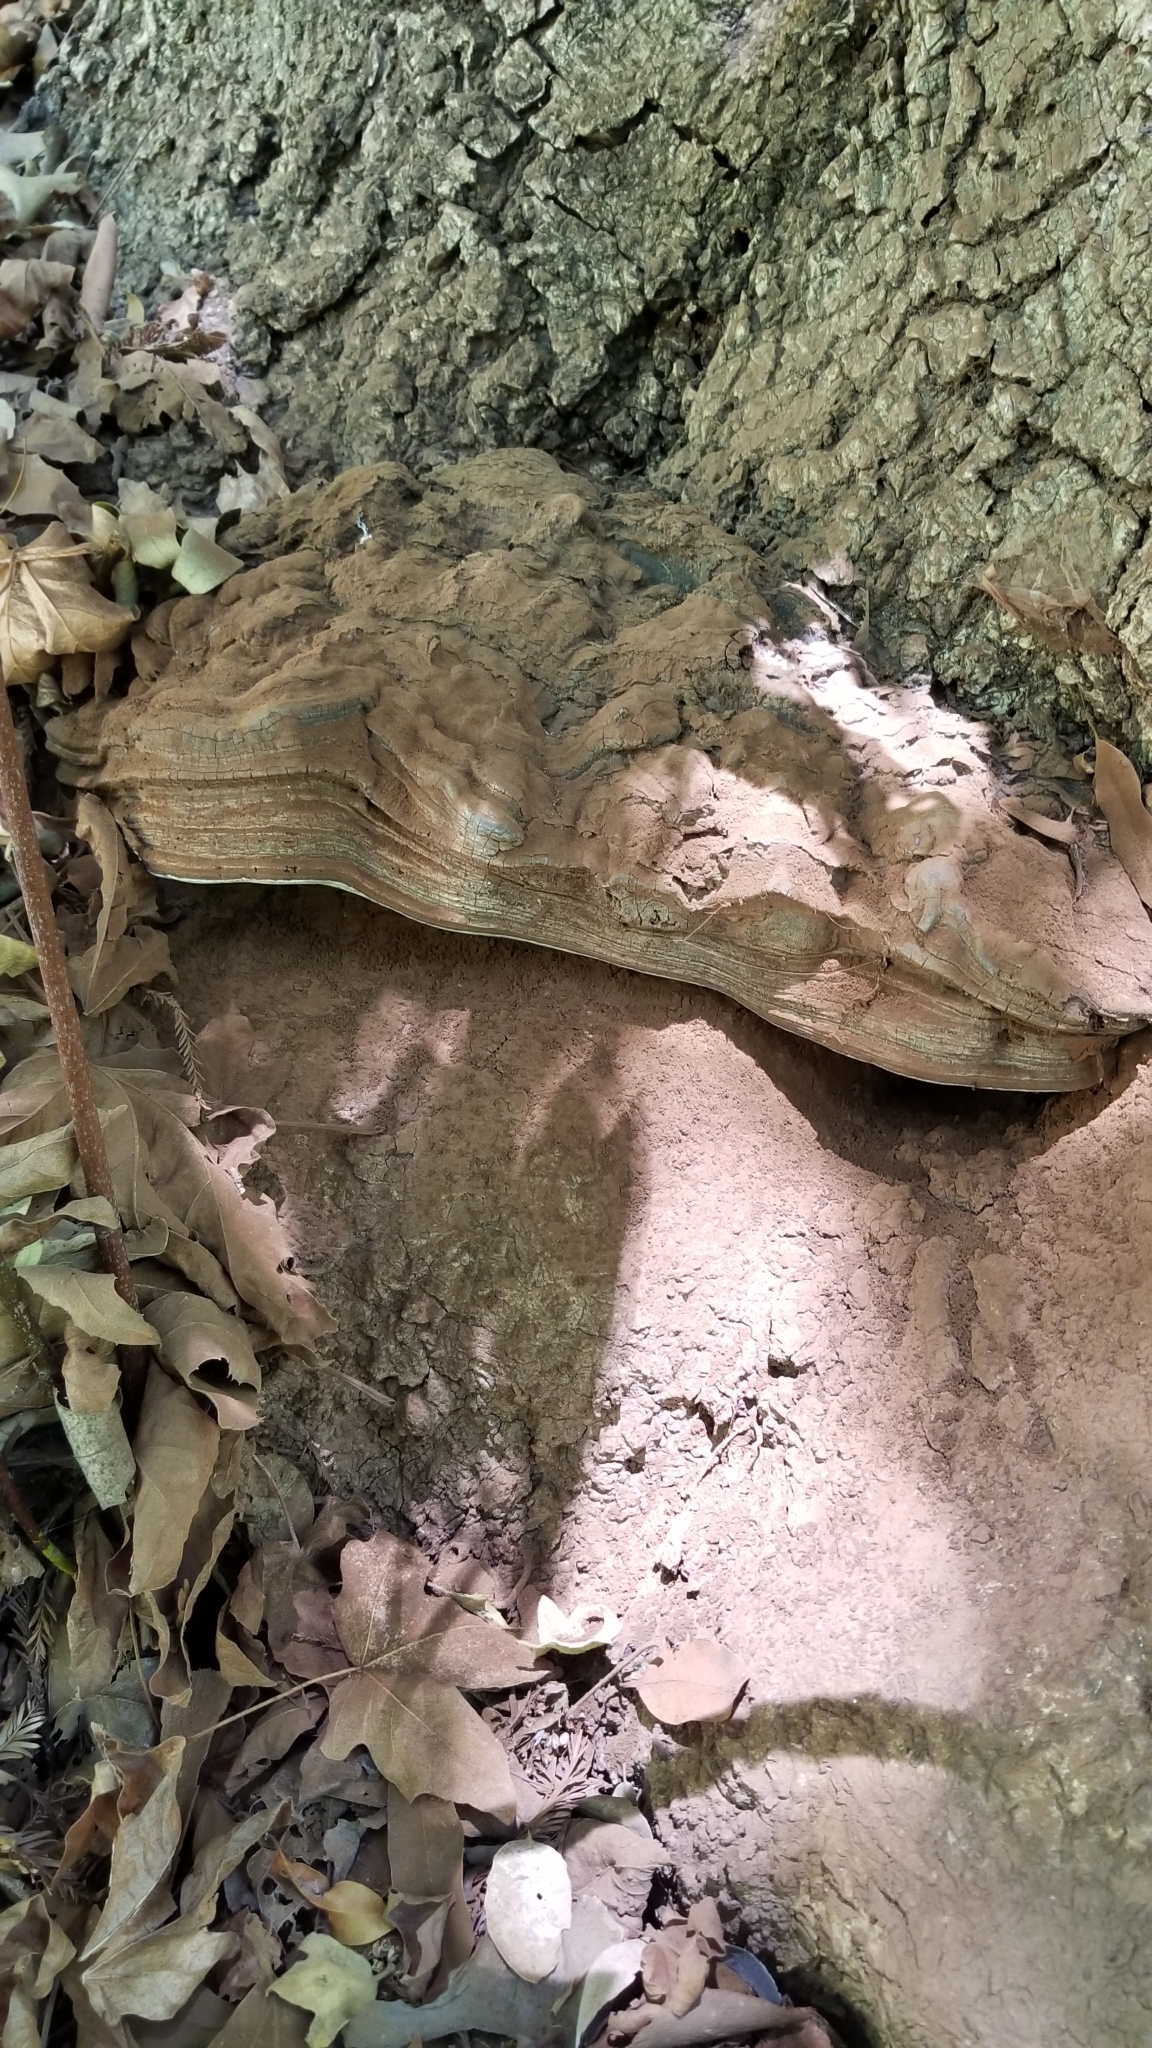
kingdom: Fungi
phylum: Basidiomycota
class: Agaricomycetes
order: Polyporales
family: Polyporaceae
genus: Ganoderma
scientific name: Ganoderma brownii
